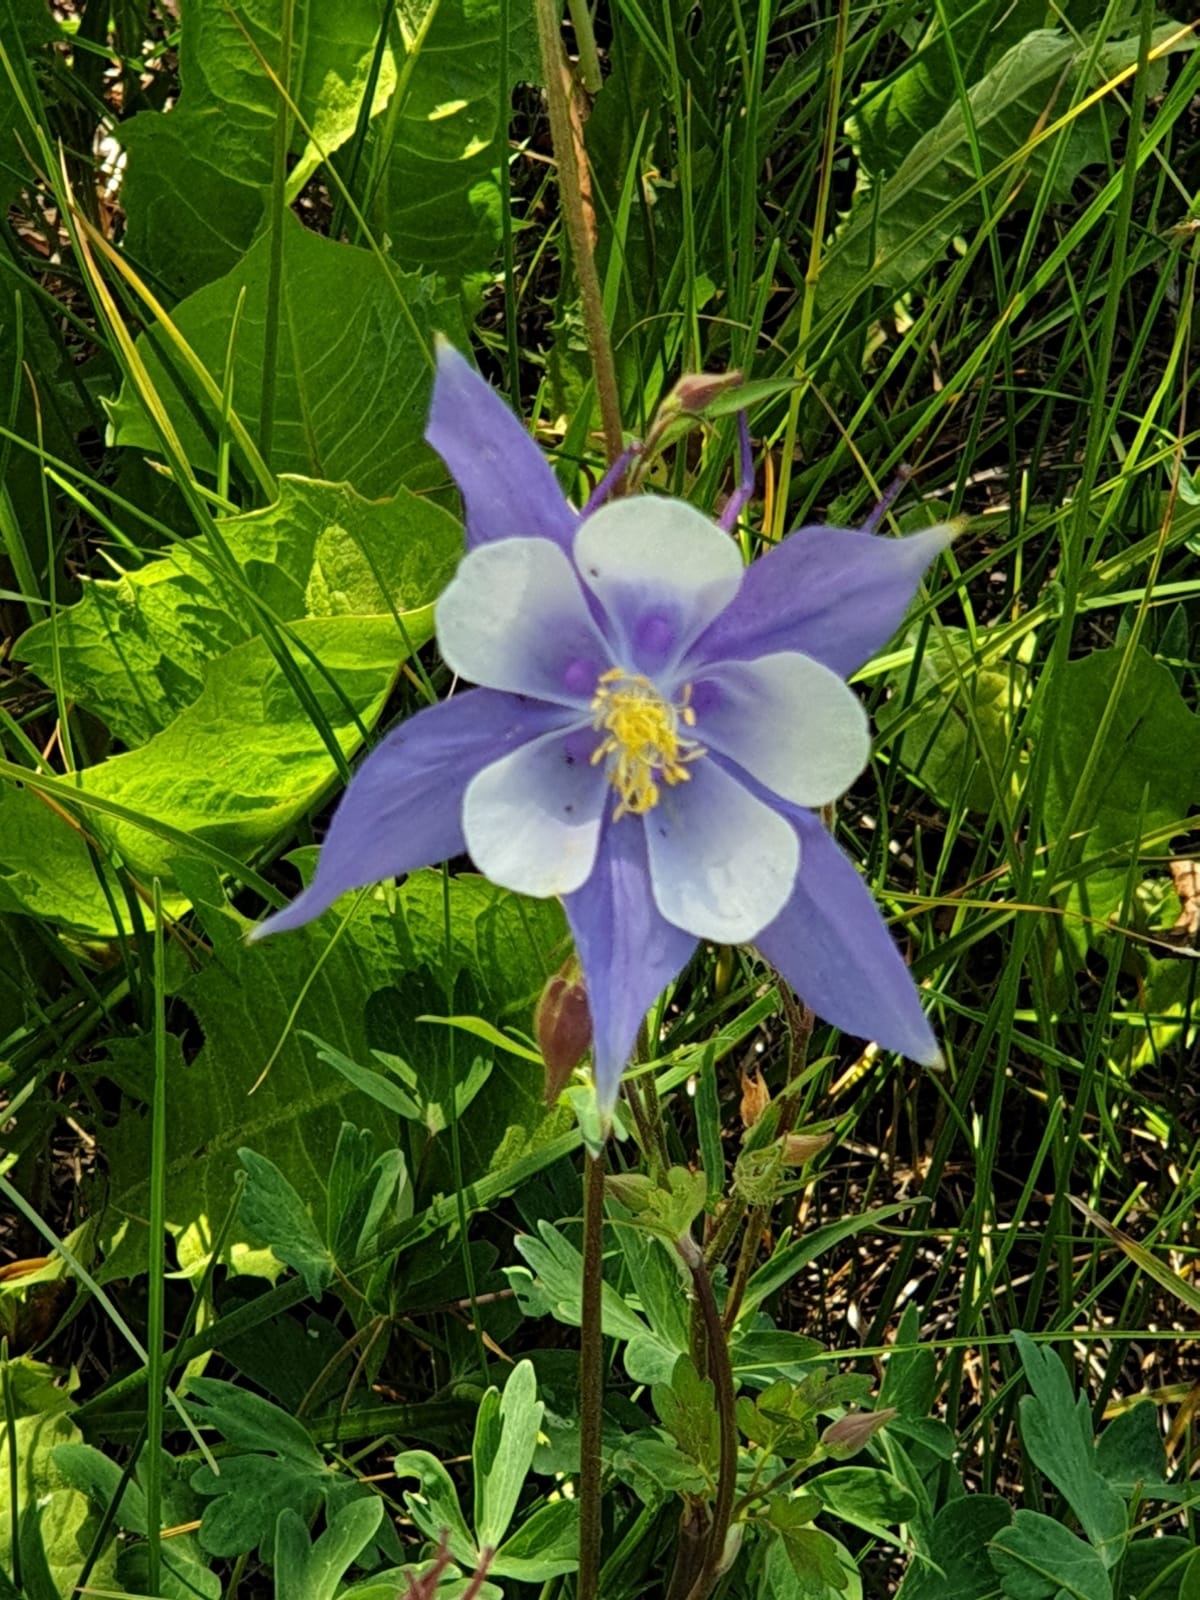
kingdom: Plantae
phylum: Tracheophyta
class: Magnoliopsida
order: Ranunculales
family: Ranunculaceae
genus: Aquilegia
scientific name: Aquilegia coerulea
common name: Rocky mountain columbine
